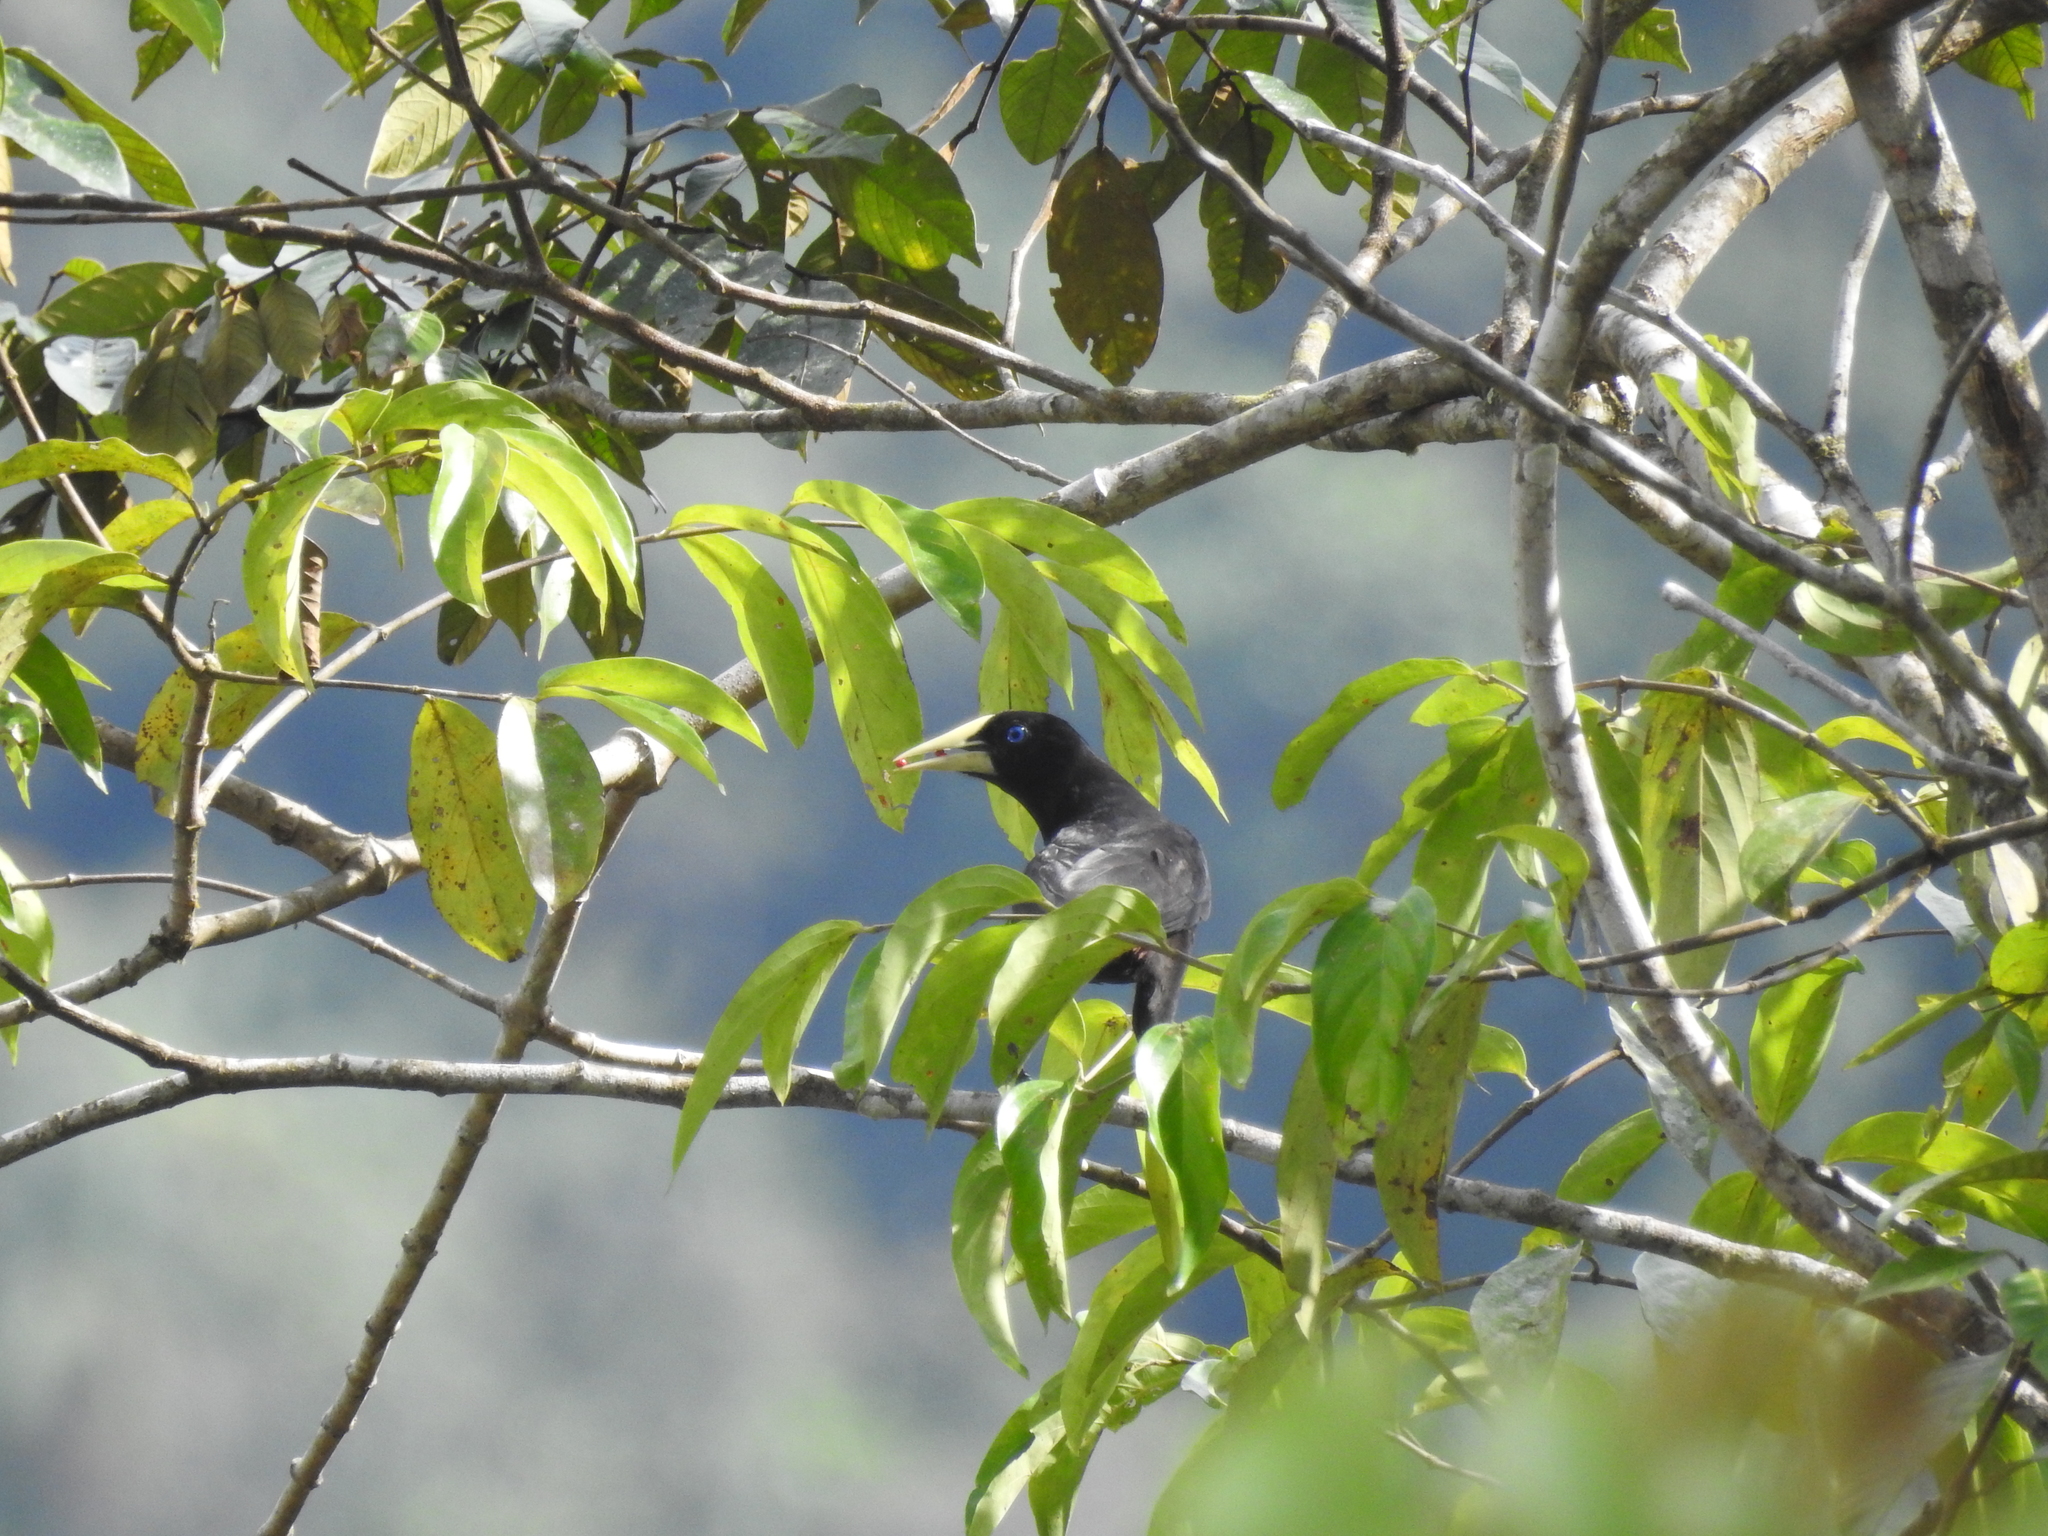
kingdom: Animalia
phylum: Chordata
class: Aves
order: Passeriformes
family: Icteridae
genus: Psarocolius
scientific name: Psarocolius decumanus
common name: Crested oropendola
